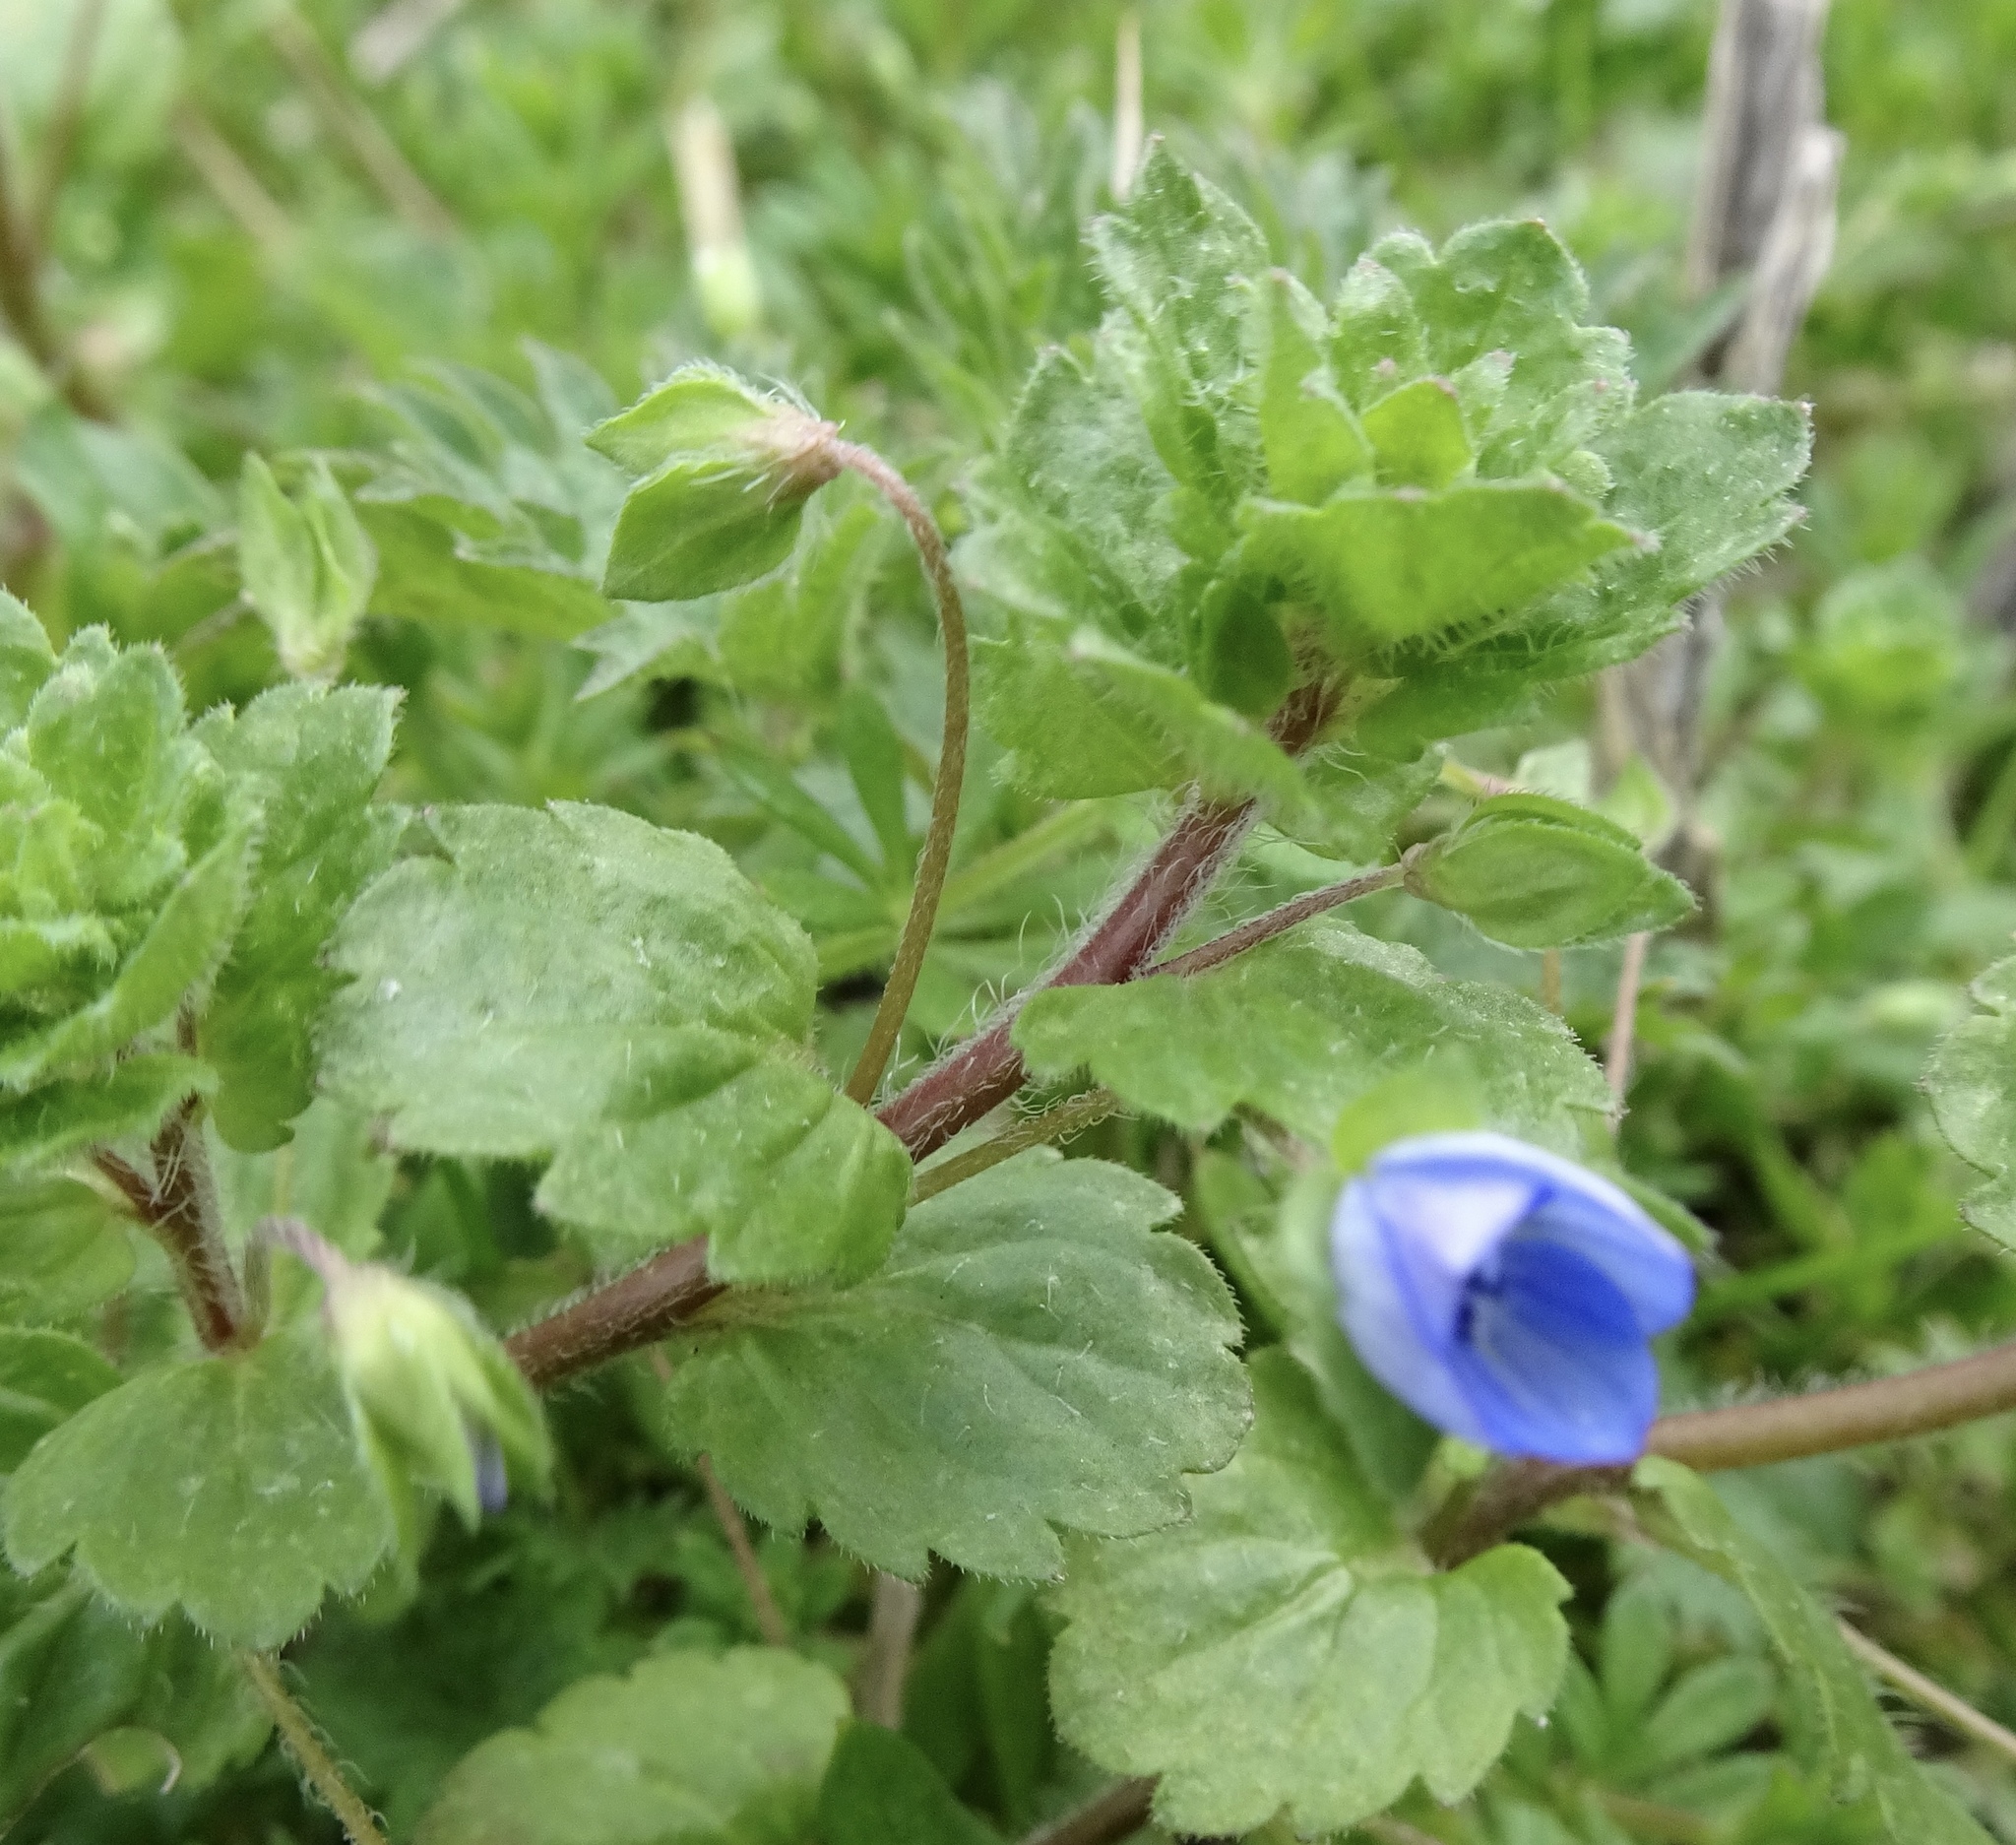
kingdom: Plantae
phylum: Tracheophyta
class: Magnoliopsida
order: Lamiales
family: Plantaginaceae
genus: Veronica
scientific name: Veronica persica
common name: Common field-speedwell
